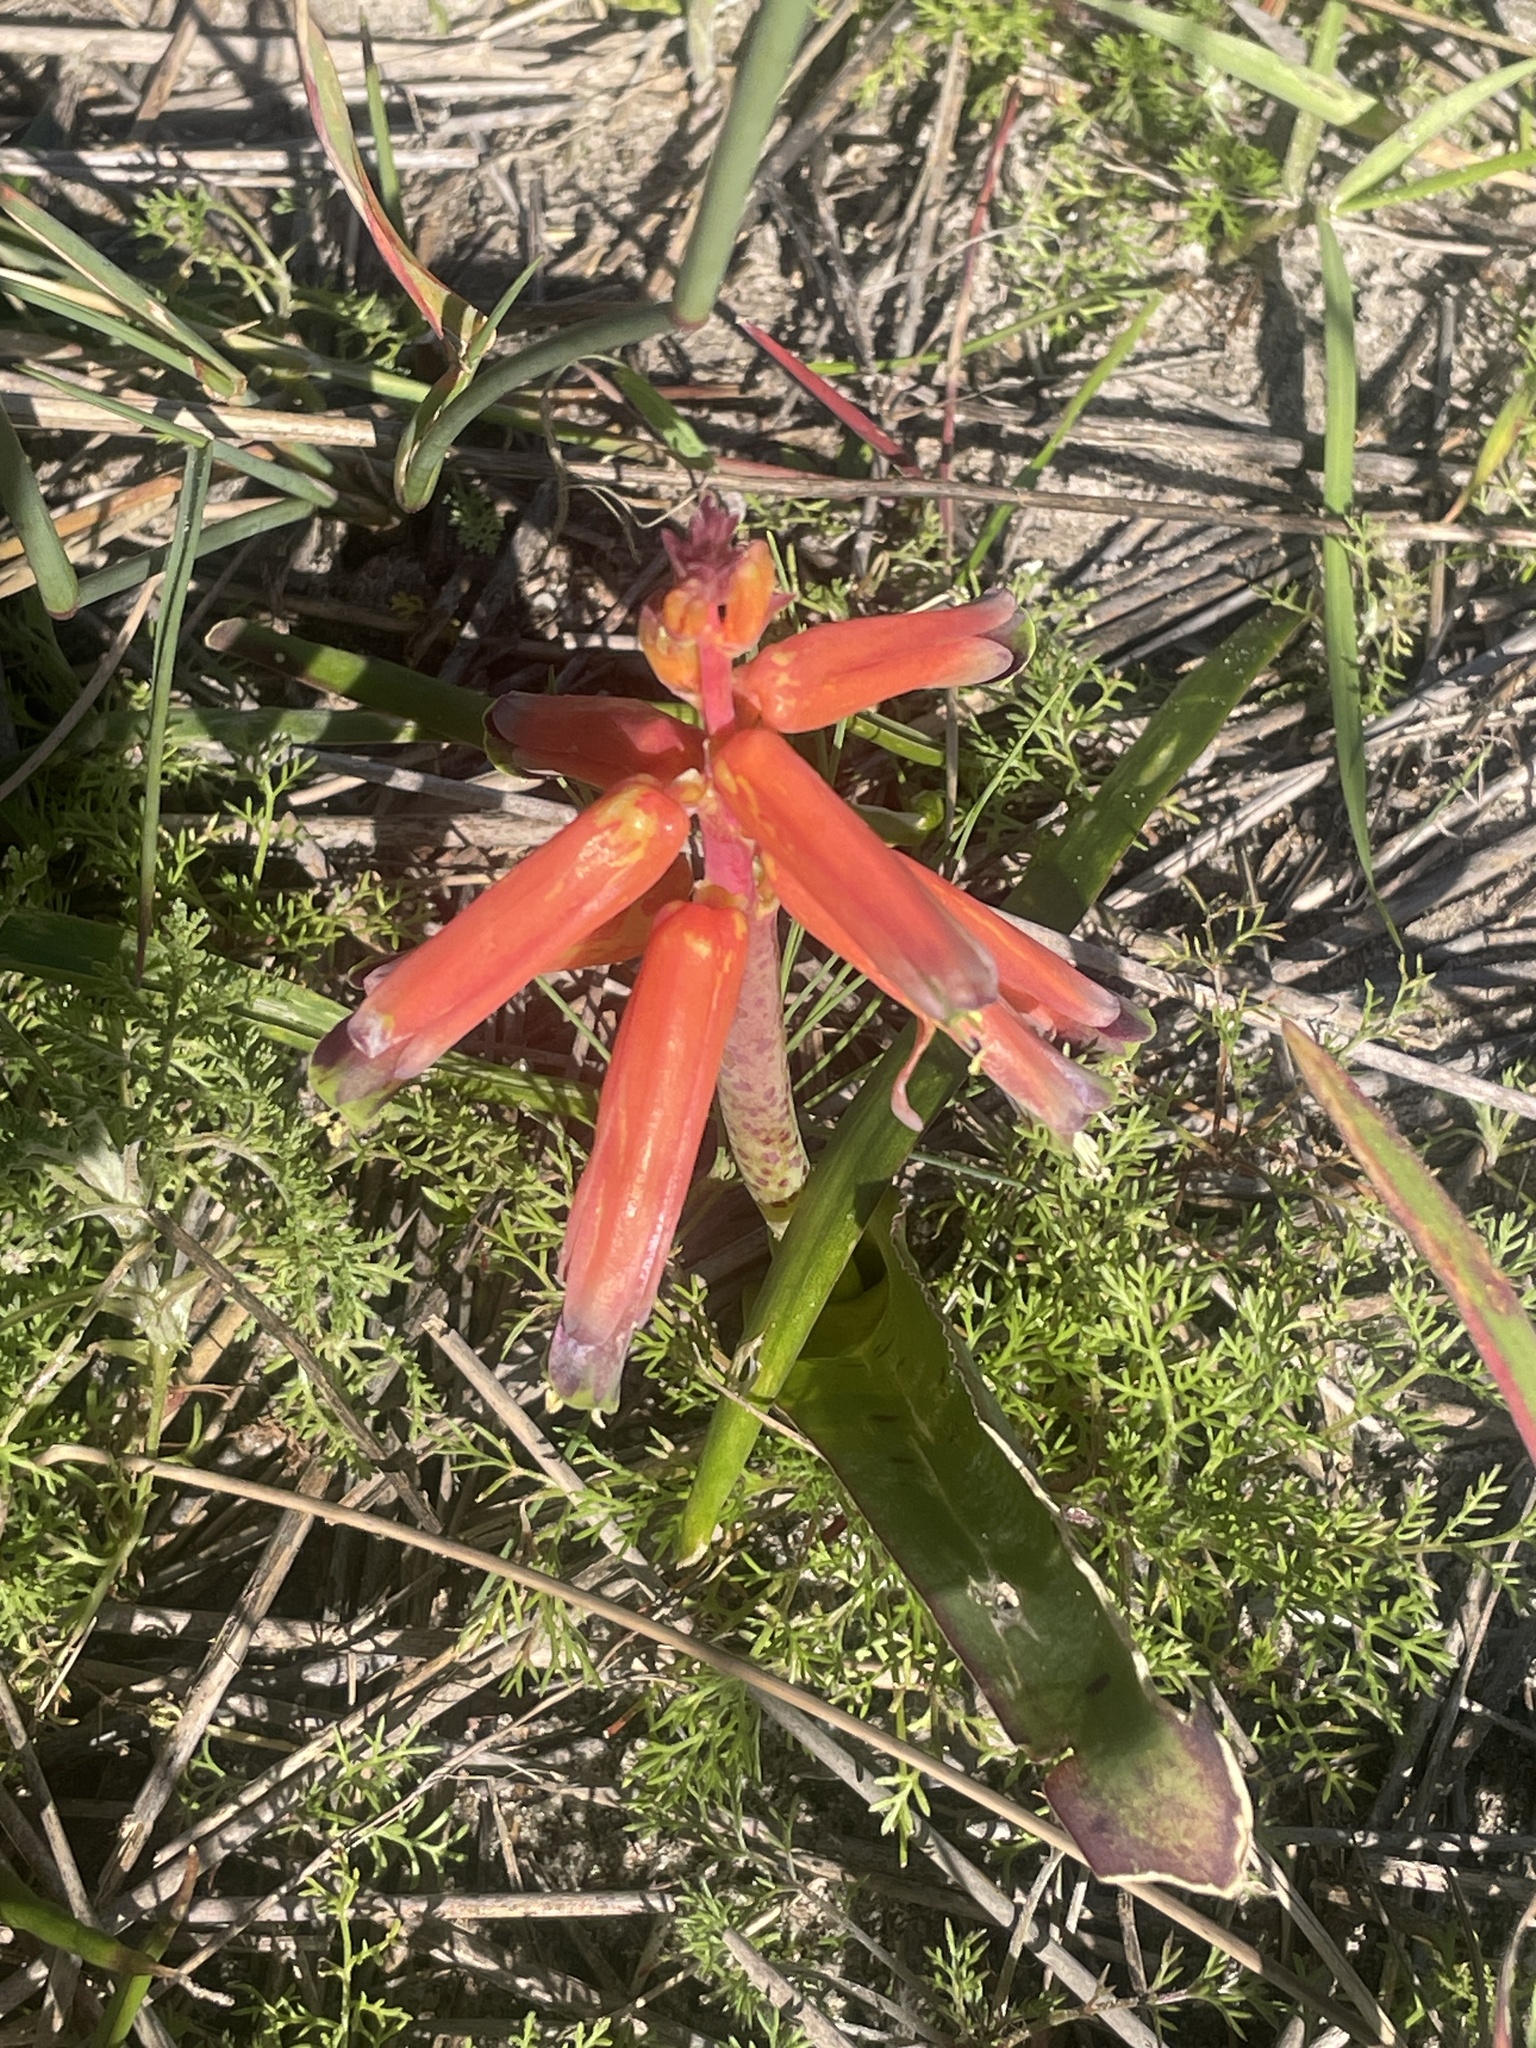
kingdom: Plantae
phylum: Tracheophyta
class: Liliopsida
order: Asparagales
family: Asparagaceae
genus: Lachenalia
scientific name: Lachenalia bulbifera
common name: Red lachenalia
